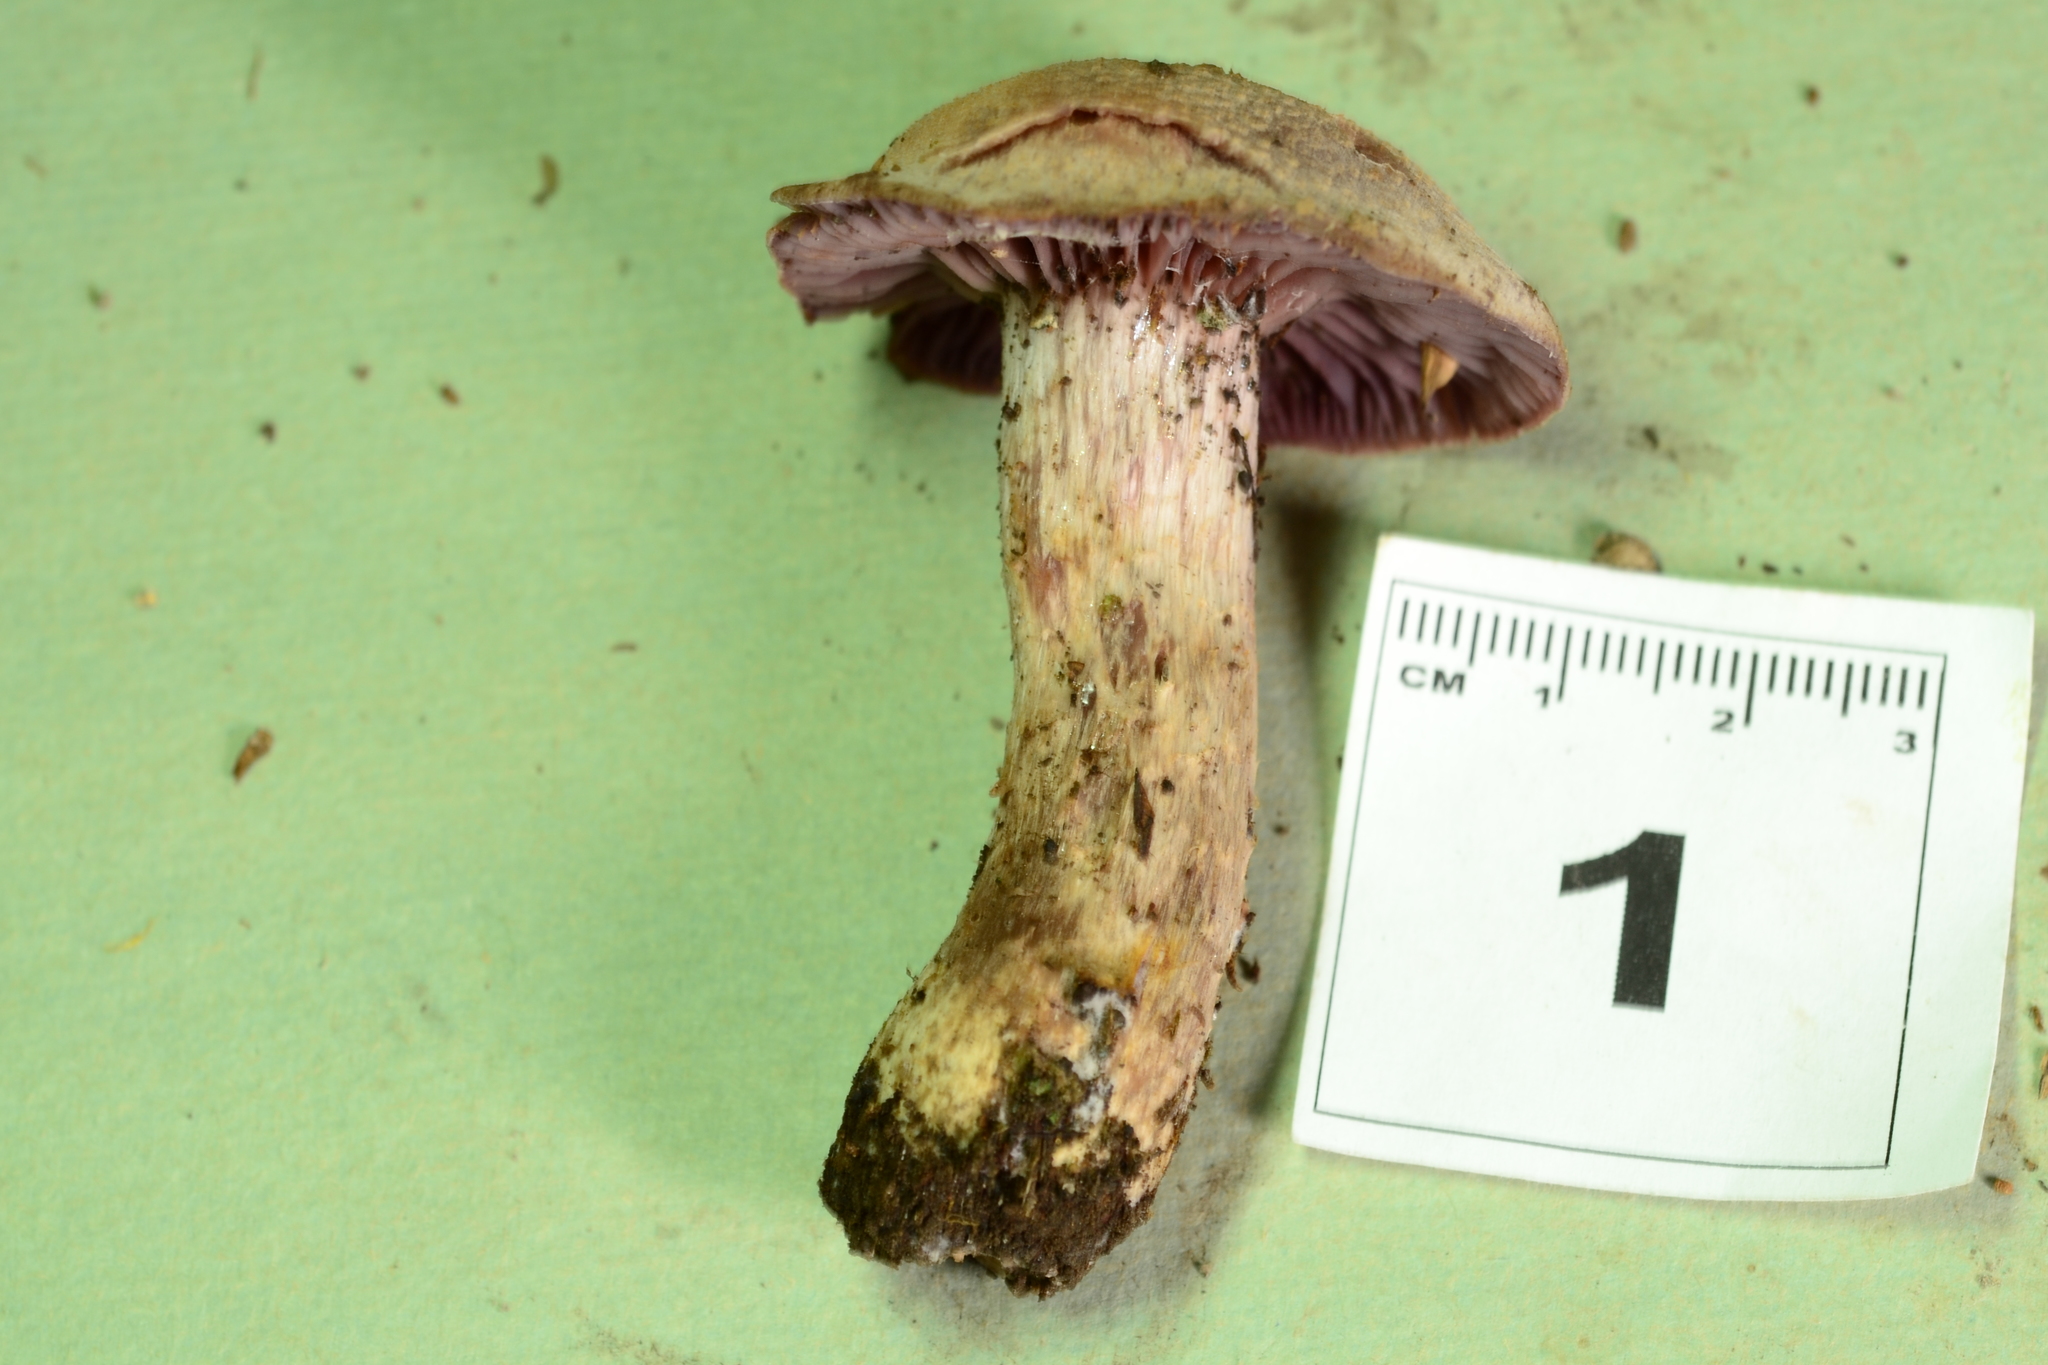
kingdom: Fungi
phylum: Basidiomycota
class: Agaricomycetes
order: Agaricales
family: Hydnangiaceae
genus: Laccaria
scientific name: Laccaria ochropurpurea
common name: Purple laccaria
